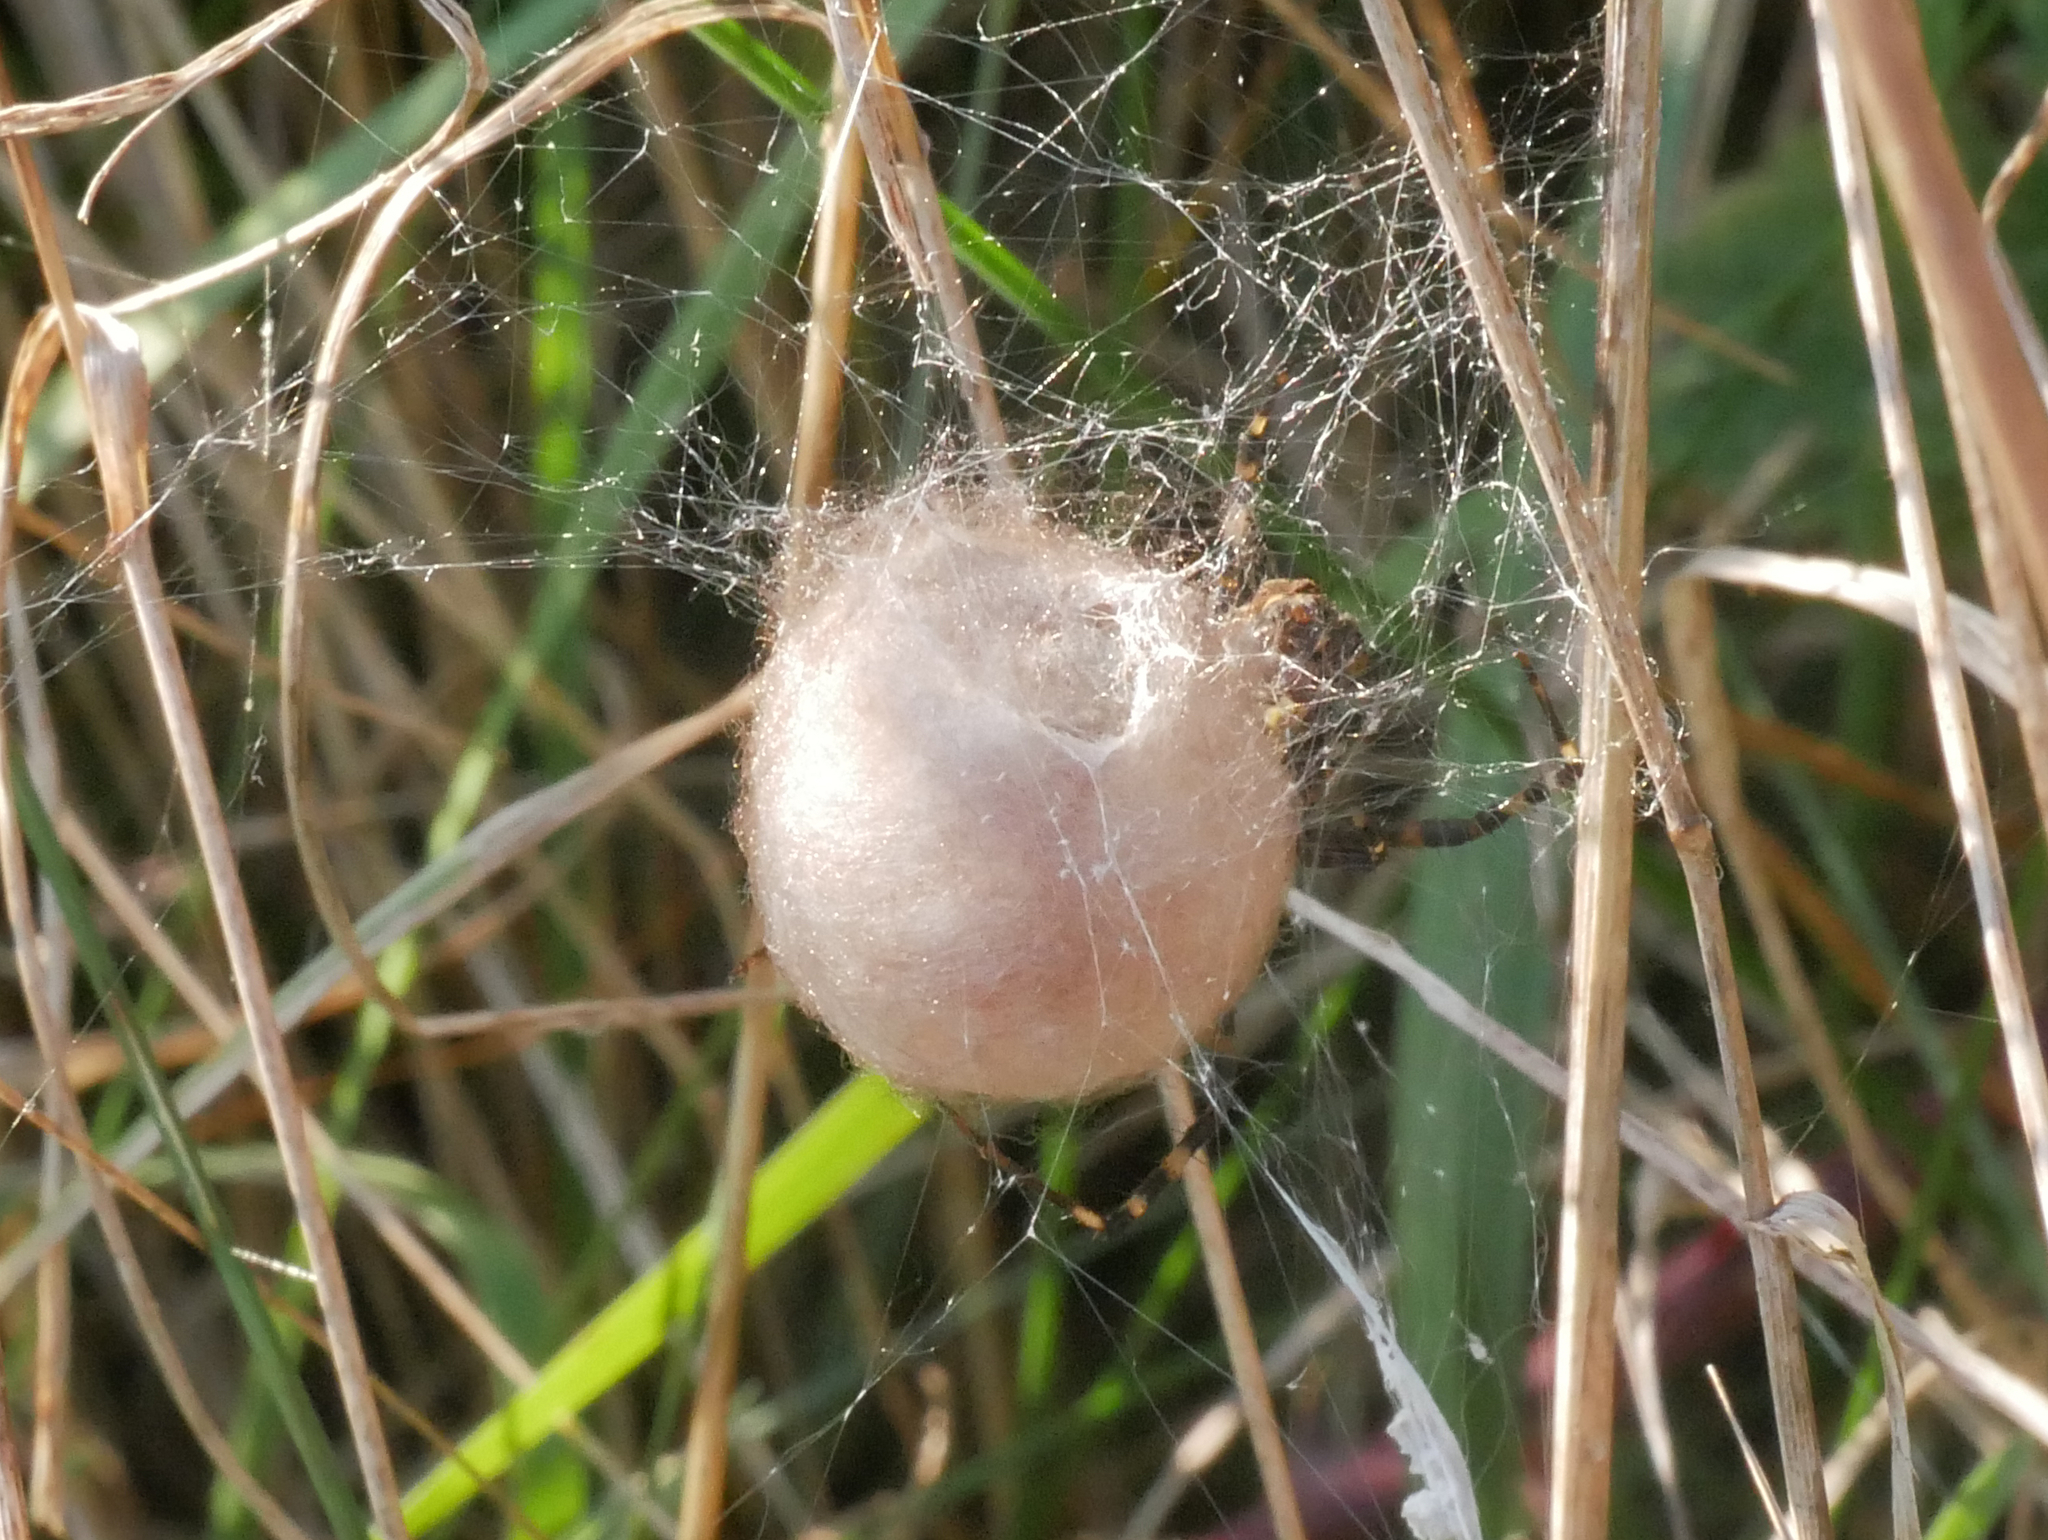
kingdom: Animalia
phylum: Arthropoda
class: Arachnida
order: Araneae
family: Araneidae
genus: Argiope
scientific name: Argiope bruennichi
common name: Wasp spider
